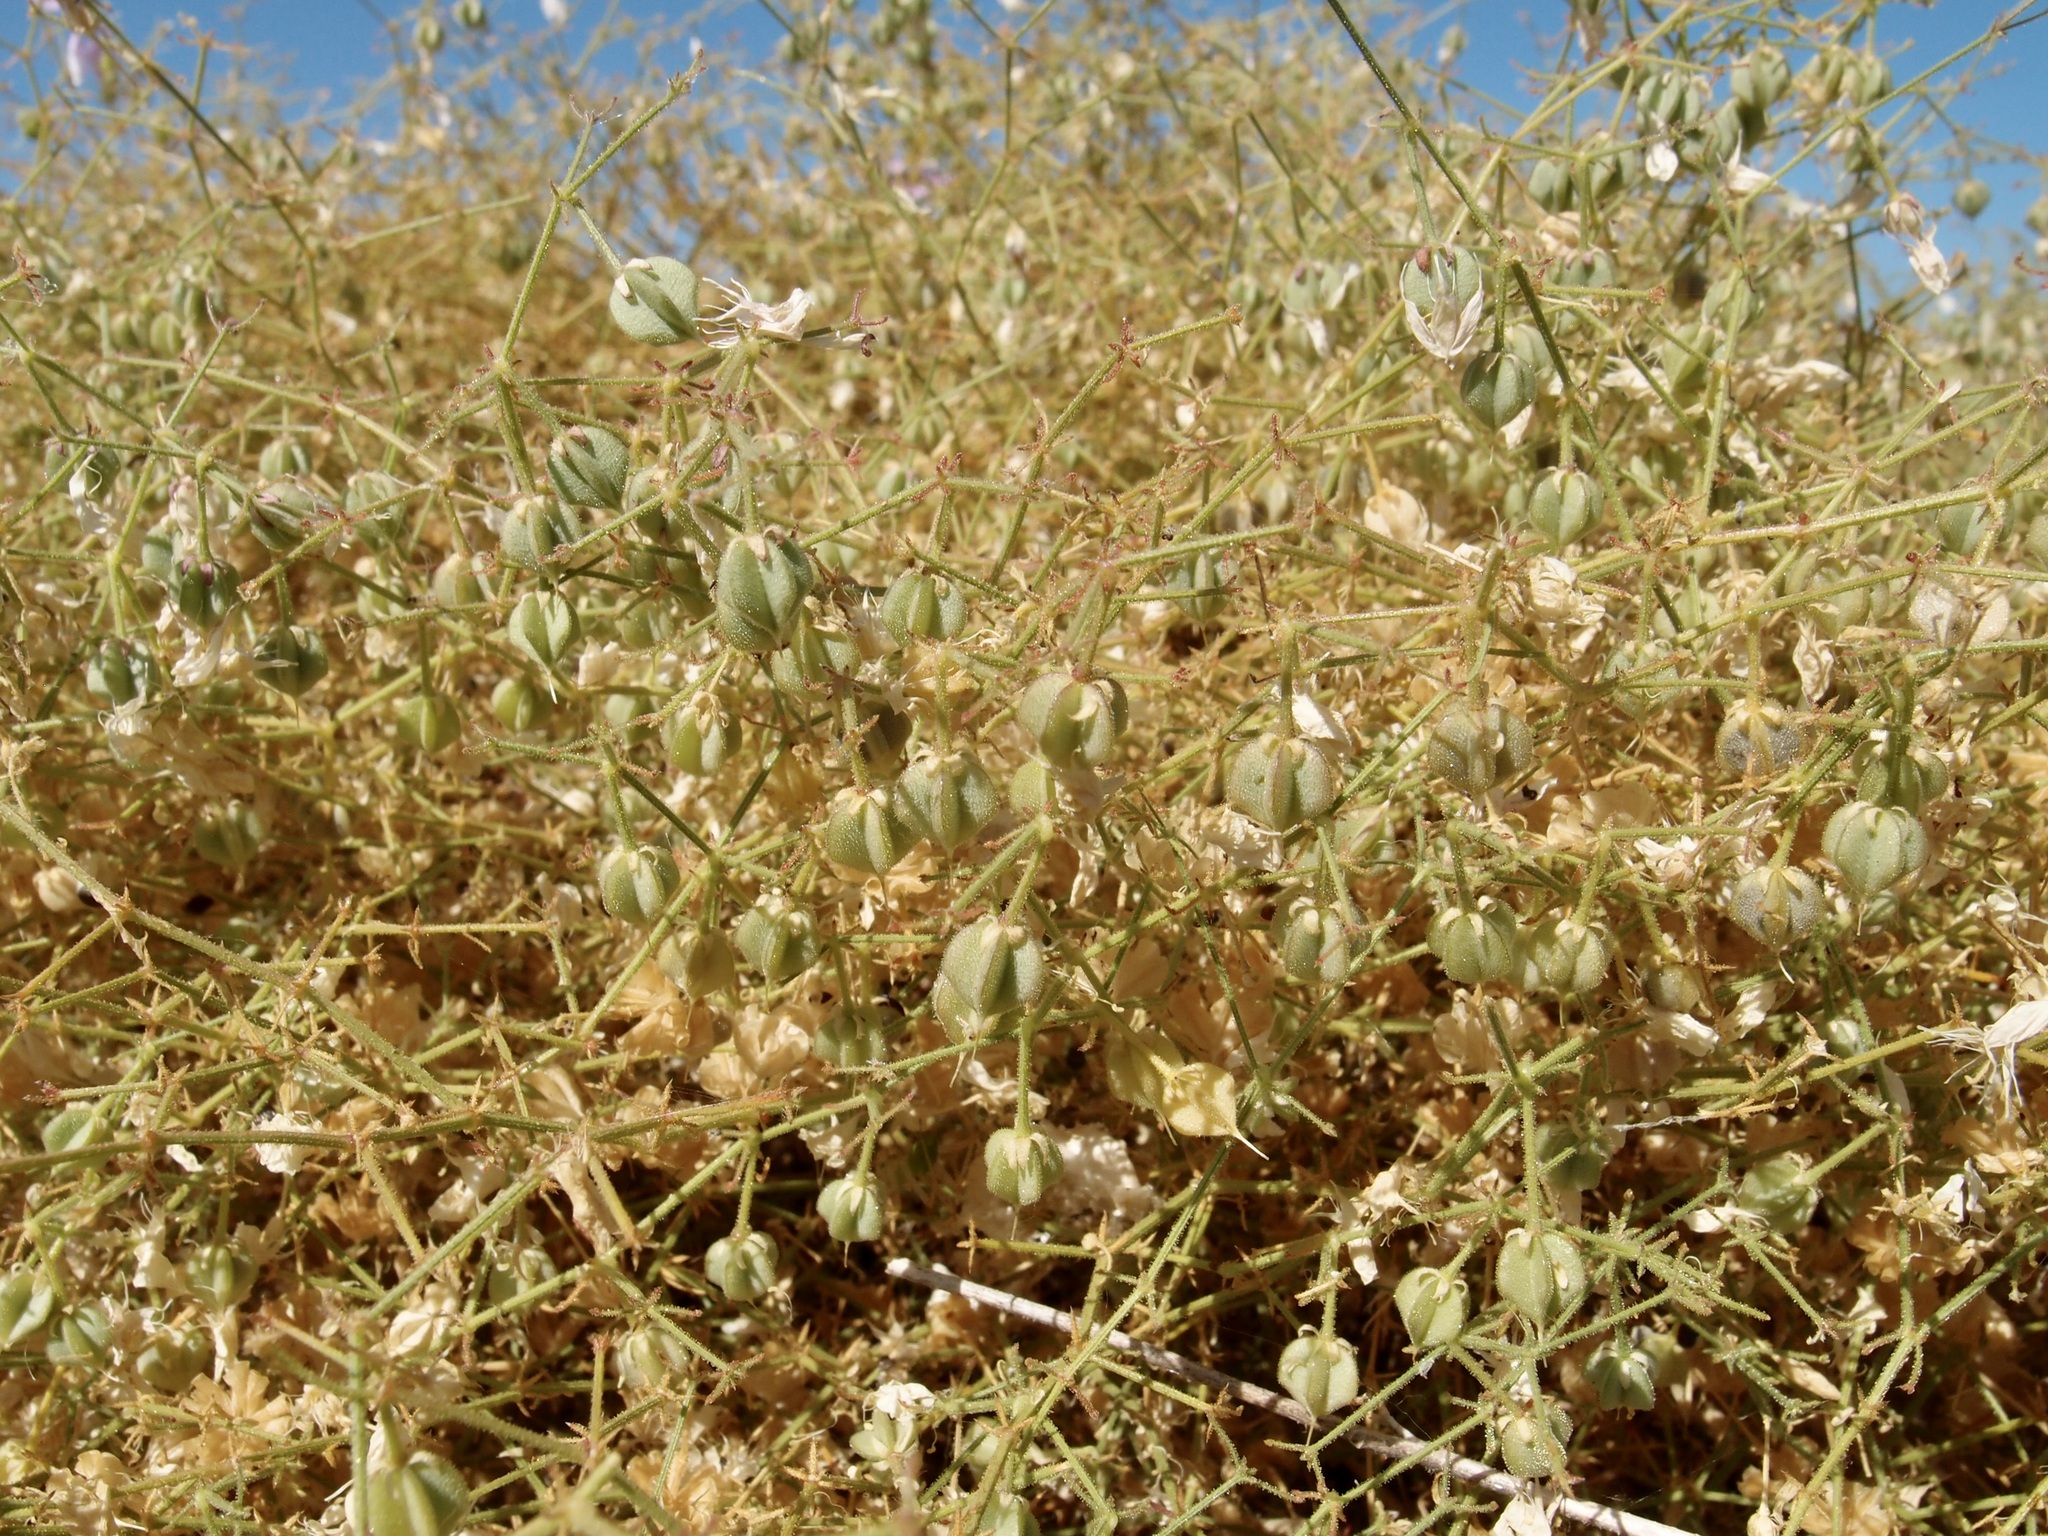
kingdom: Plantae
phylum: Tracheophyta
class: Magnoliopsida
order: Zygophyllales
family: Zygophyllaceae
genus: Fagonia
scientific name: Fagonia laevis
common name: California fagonbush
